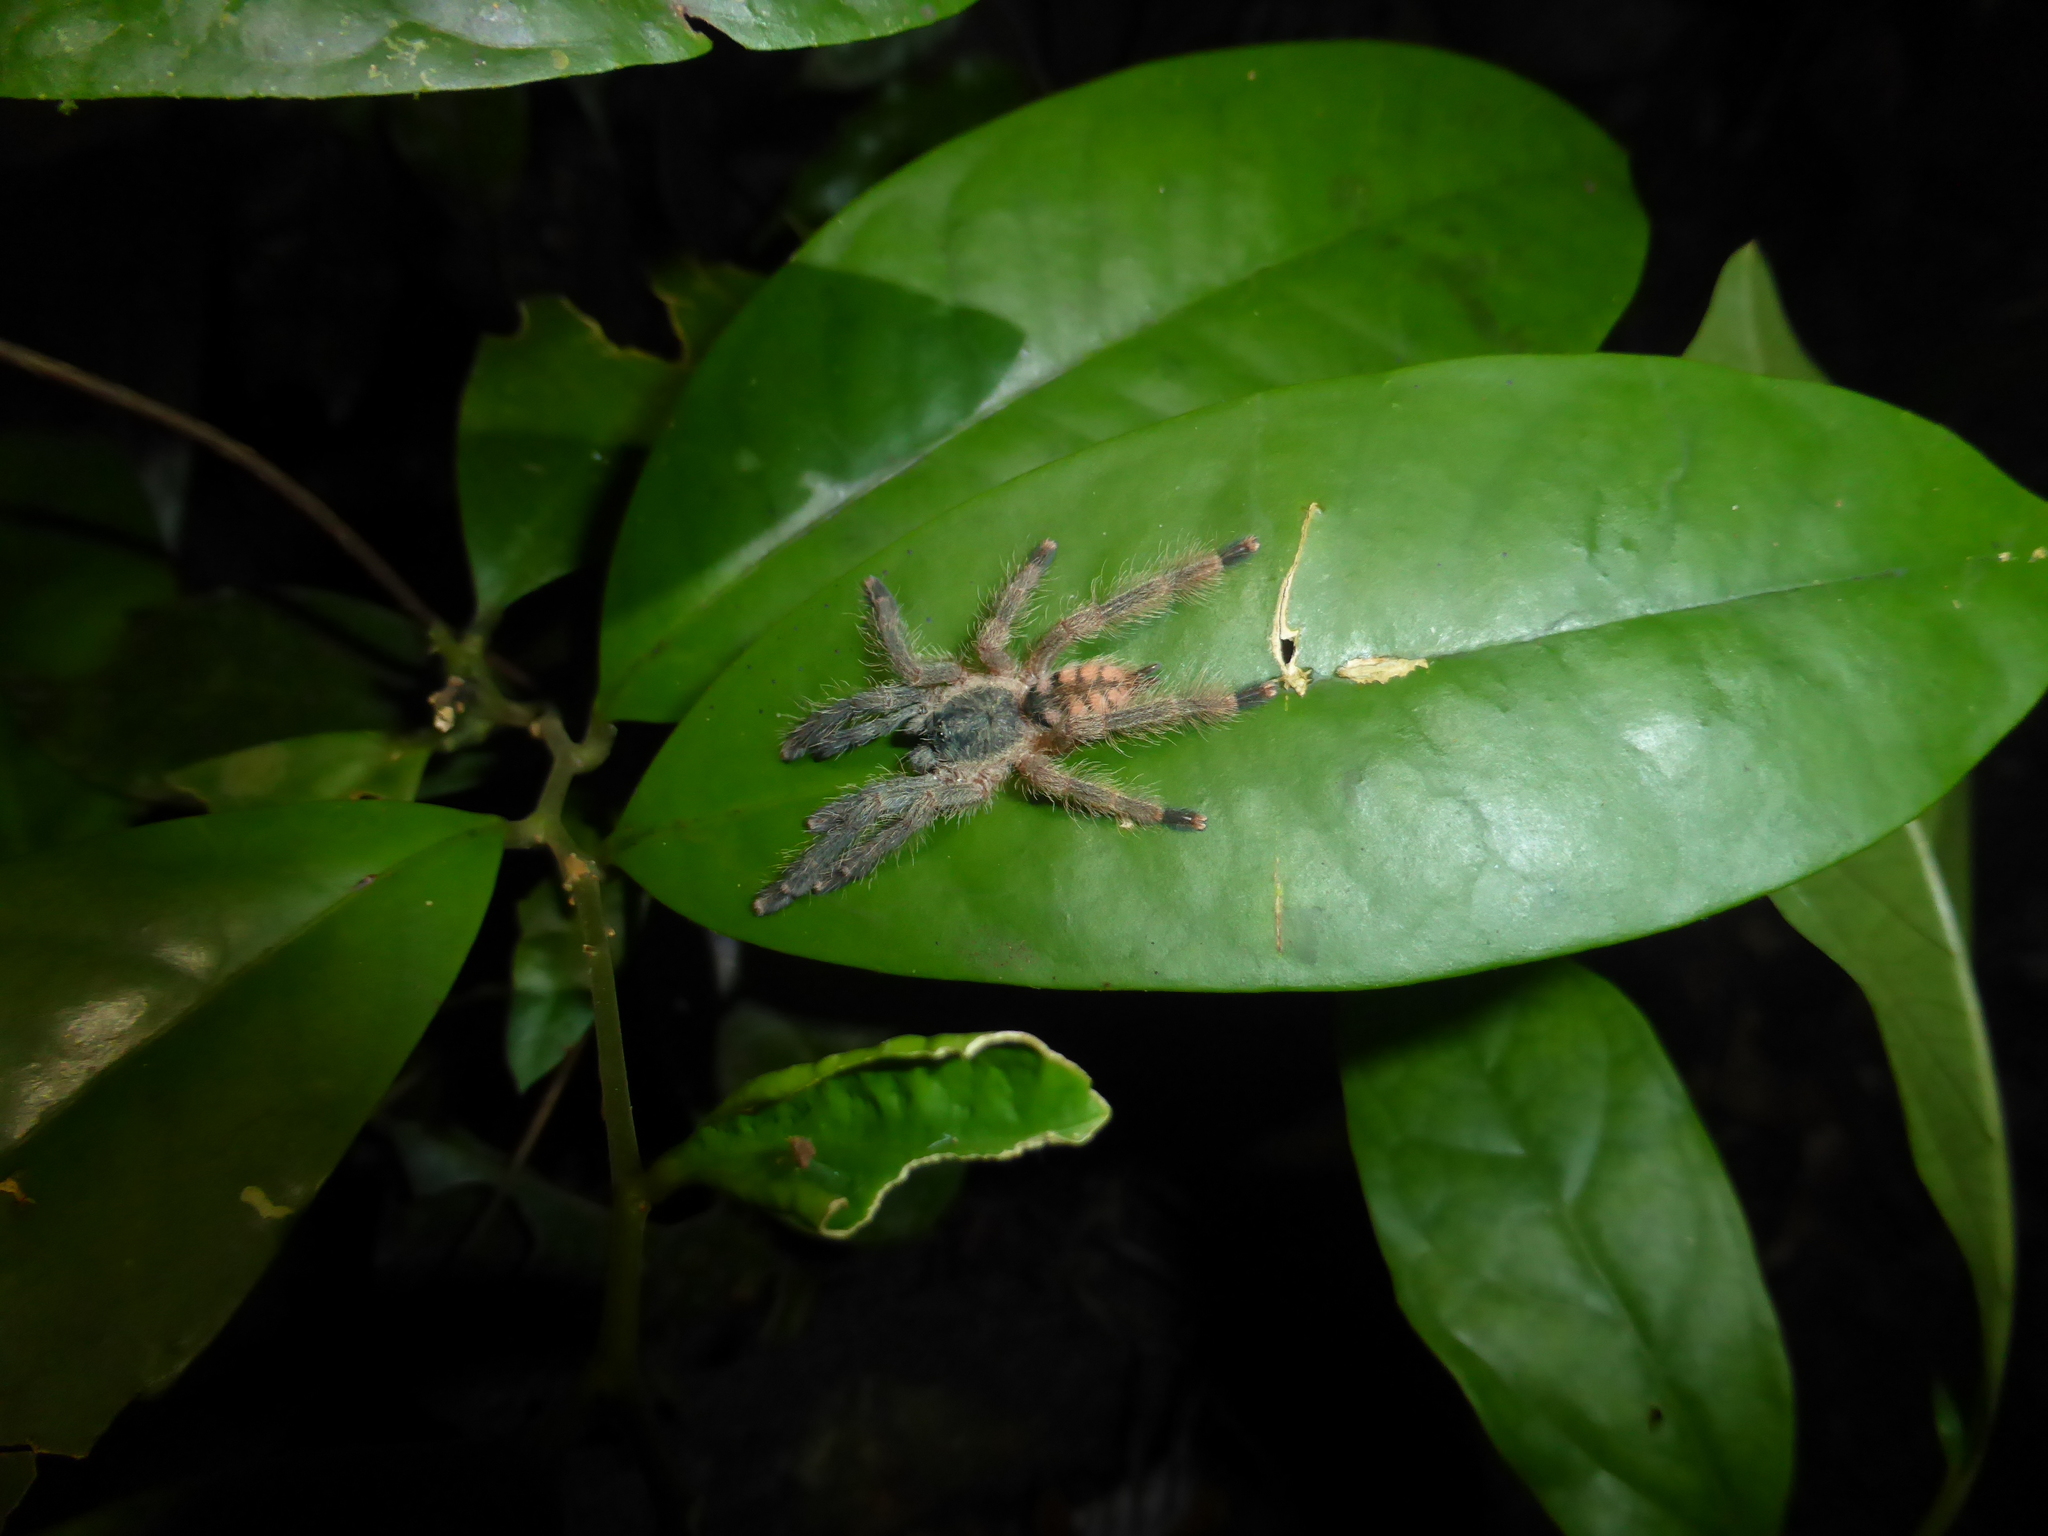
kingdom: Animalia
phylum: Arthropoda
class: Arachnida
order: Araneae
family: Theraphosidae
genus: Amazonius
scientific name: Amazonius germani
